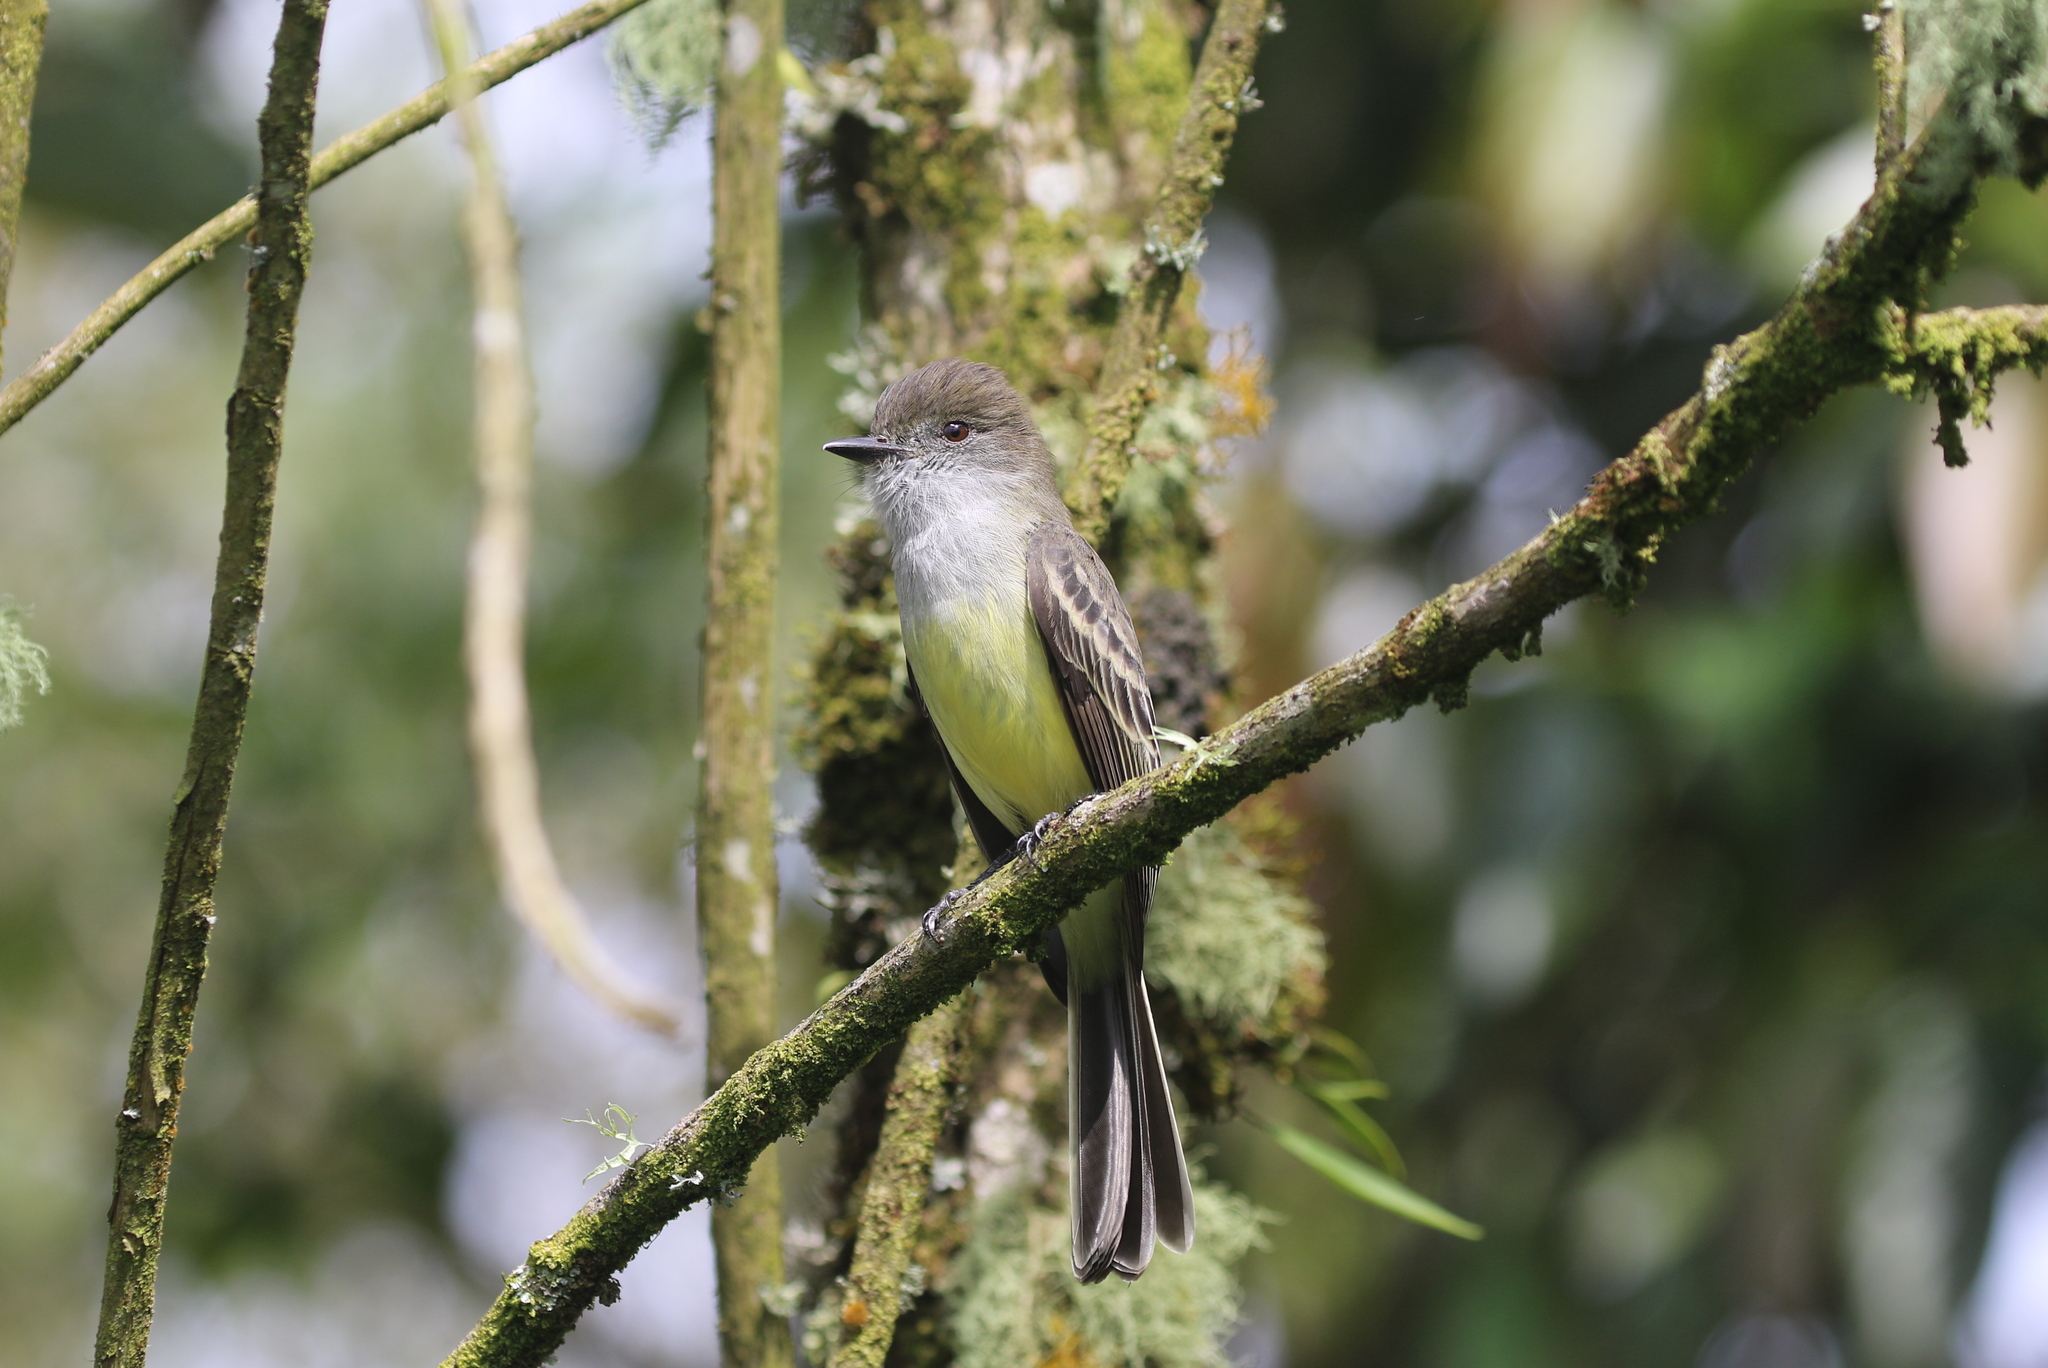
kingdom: Animalia
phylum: Chordata
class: Aves
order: Passeriformes
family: Tyrannidae
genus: Myiarchus
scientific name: Myiarchus cephalotes
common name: Pale-edged flycatcher
